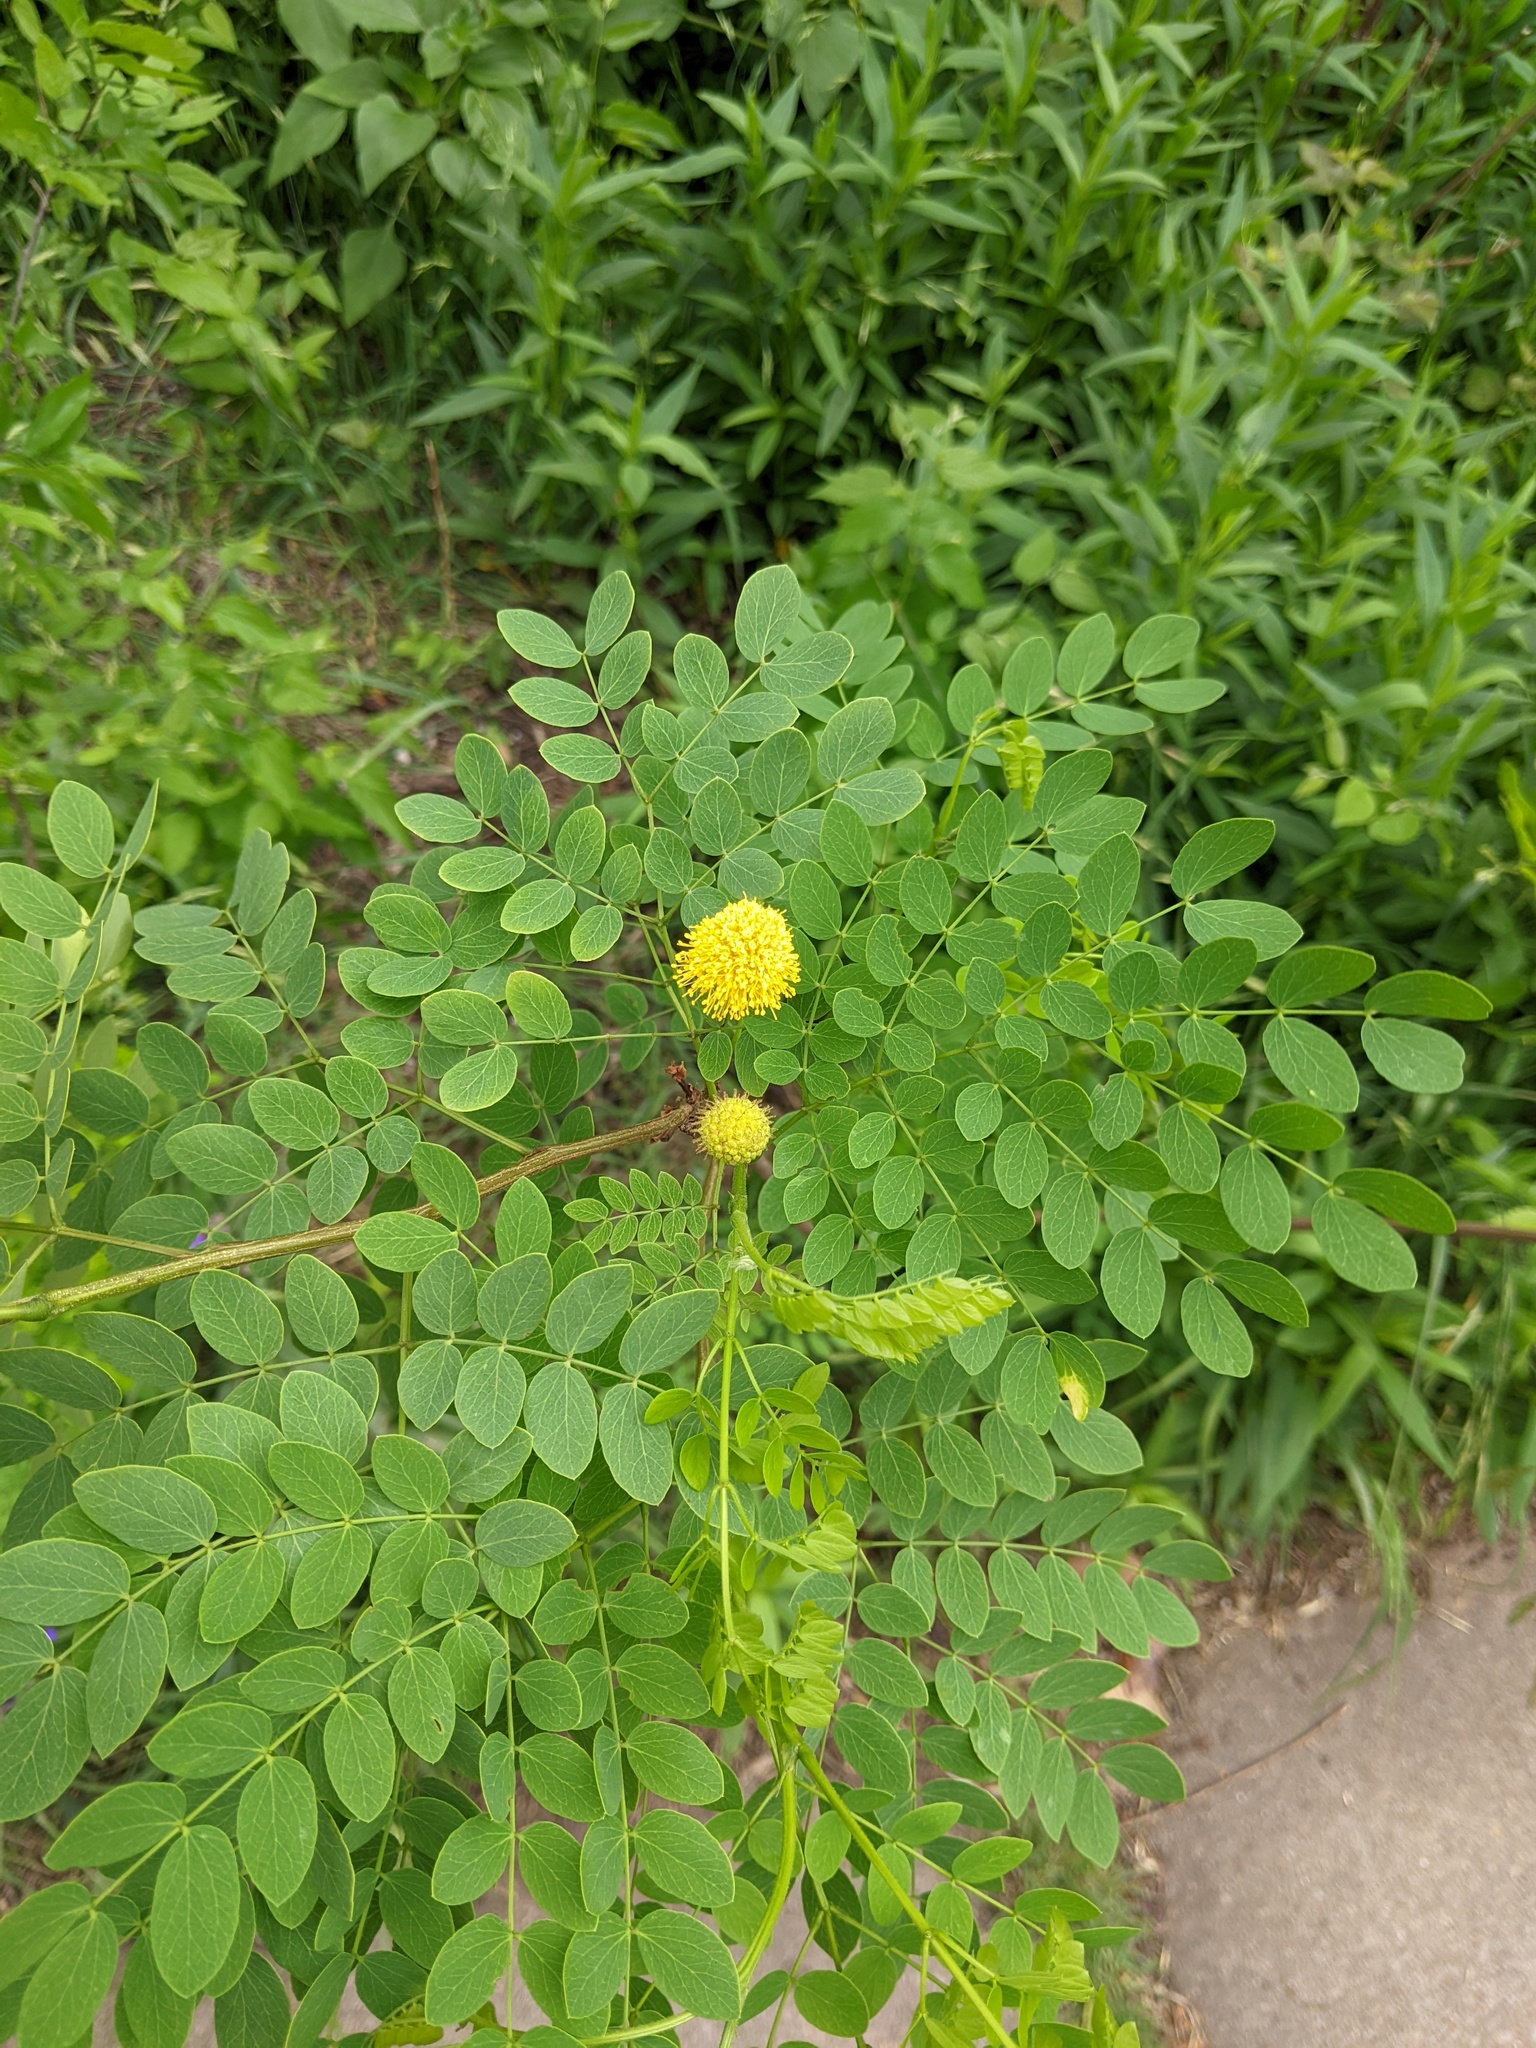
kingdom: Plantae
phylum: Tracheophyta
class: Magnoliopsida
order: Fabales
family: Fabaceae
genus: Leucaena
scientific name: Leucaena retusa
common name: Littleleaf leadtree
